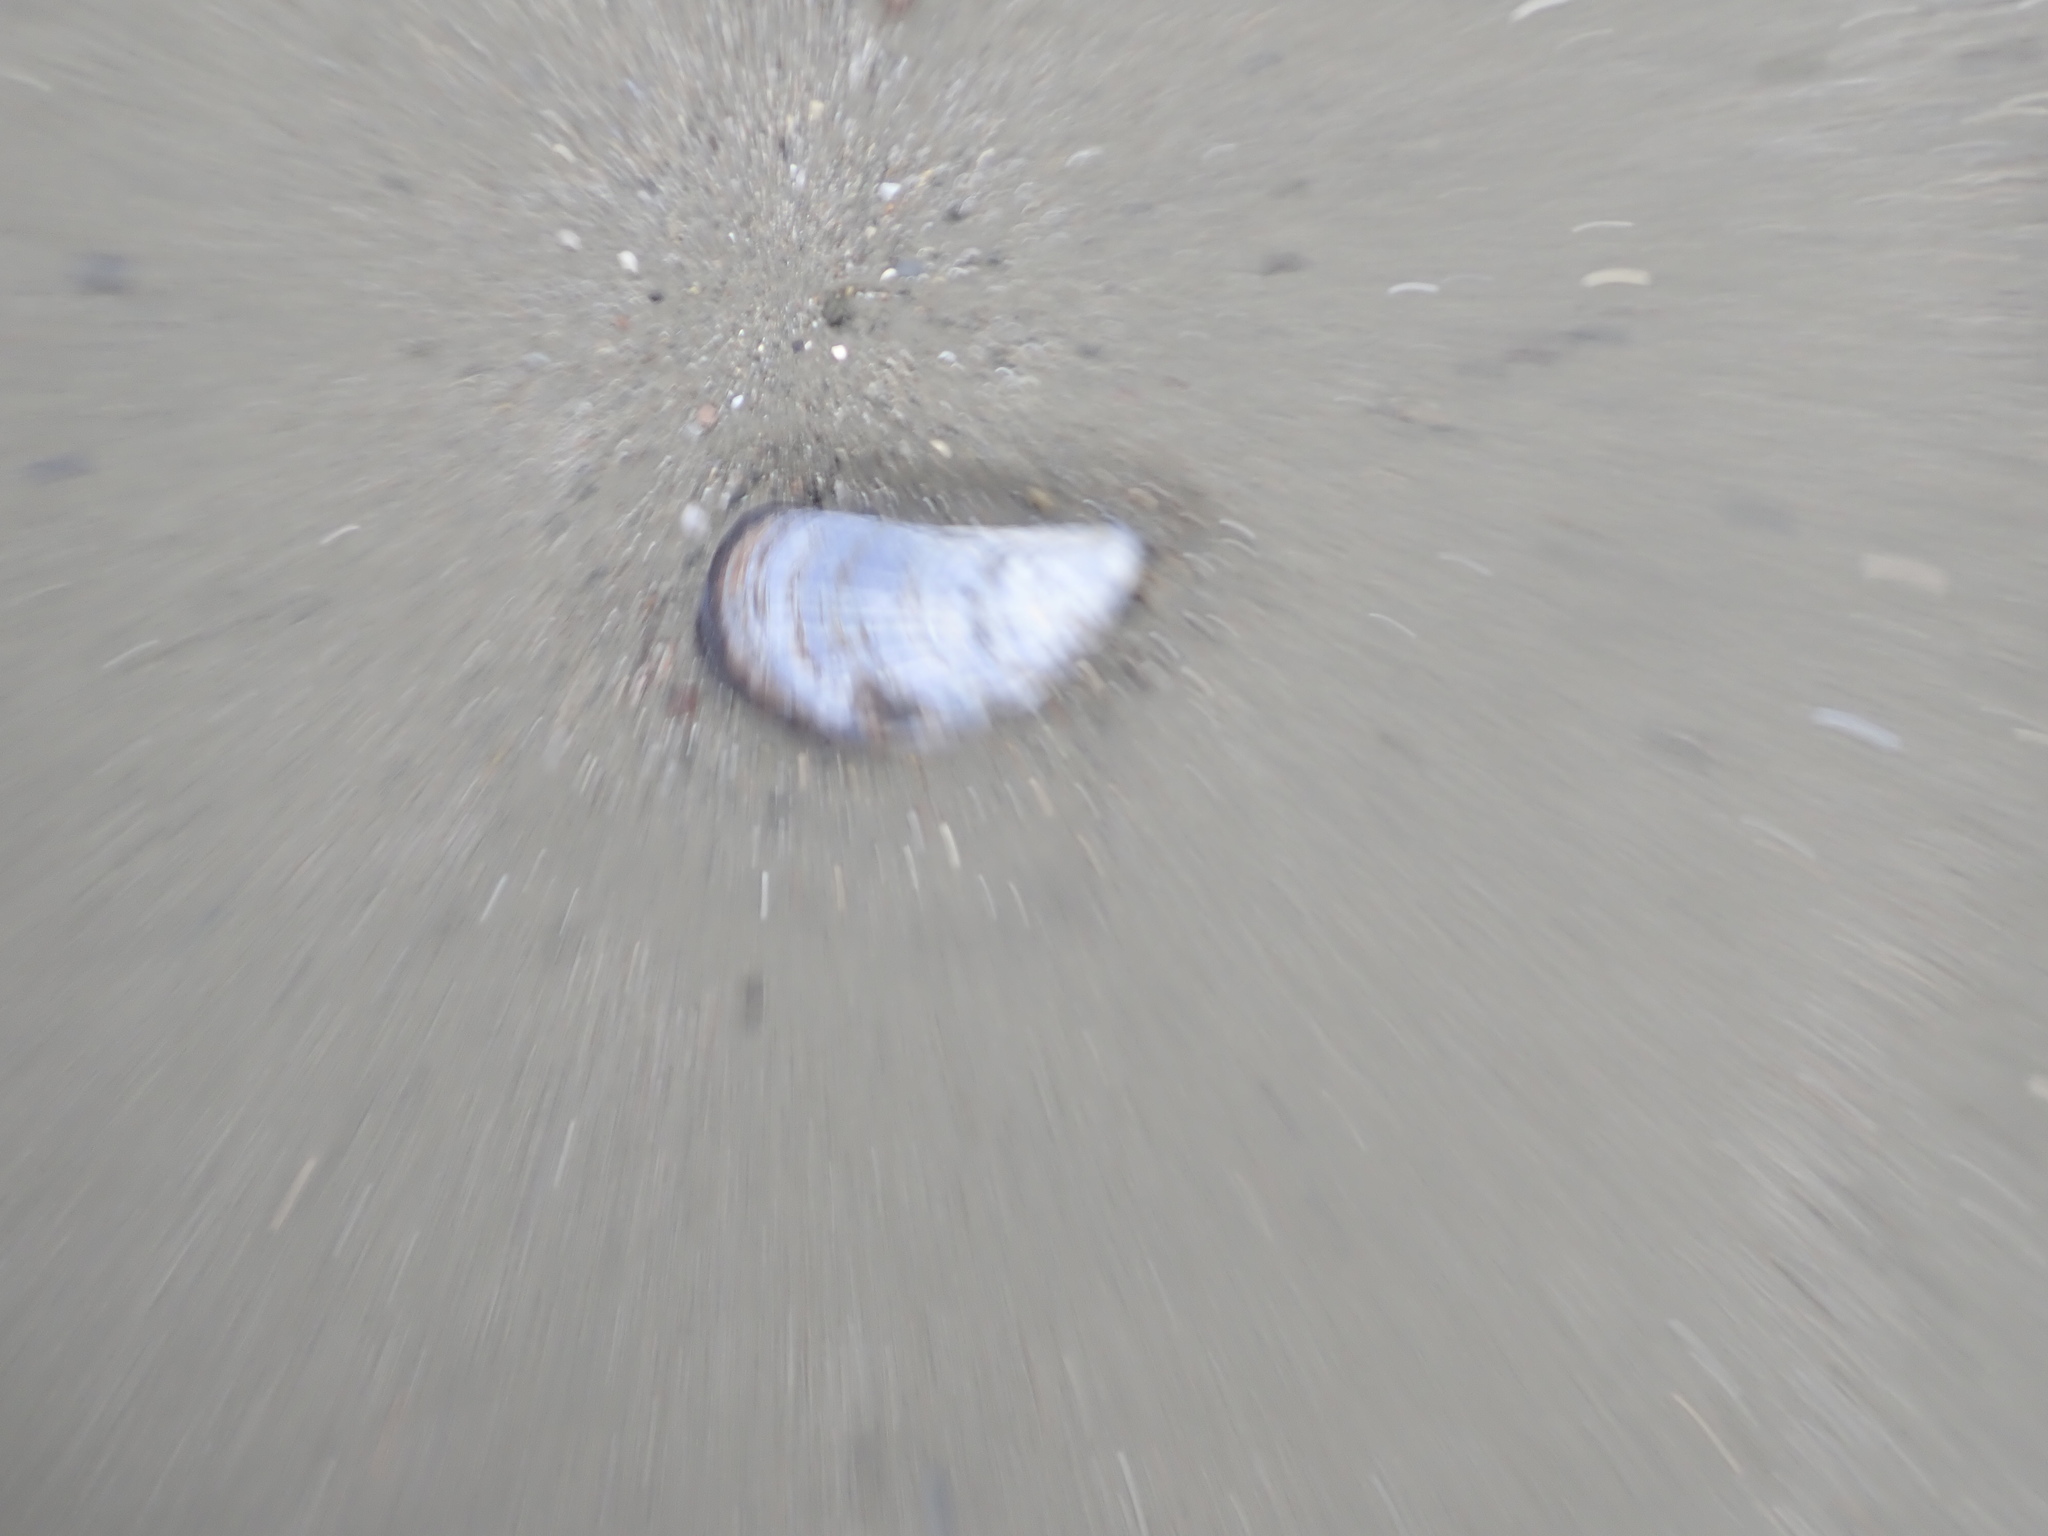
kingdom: Animalia
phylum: Mollusca
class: Bivalvia
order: Mytilida
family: Mytilidae
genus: Mytilus
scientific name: Mytilus edulis
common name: Blue mussel
